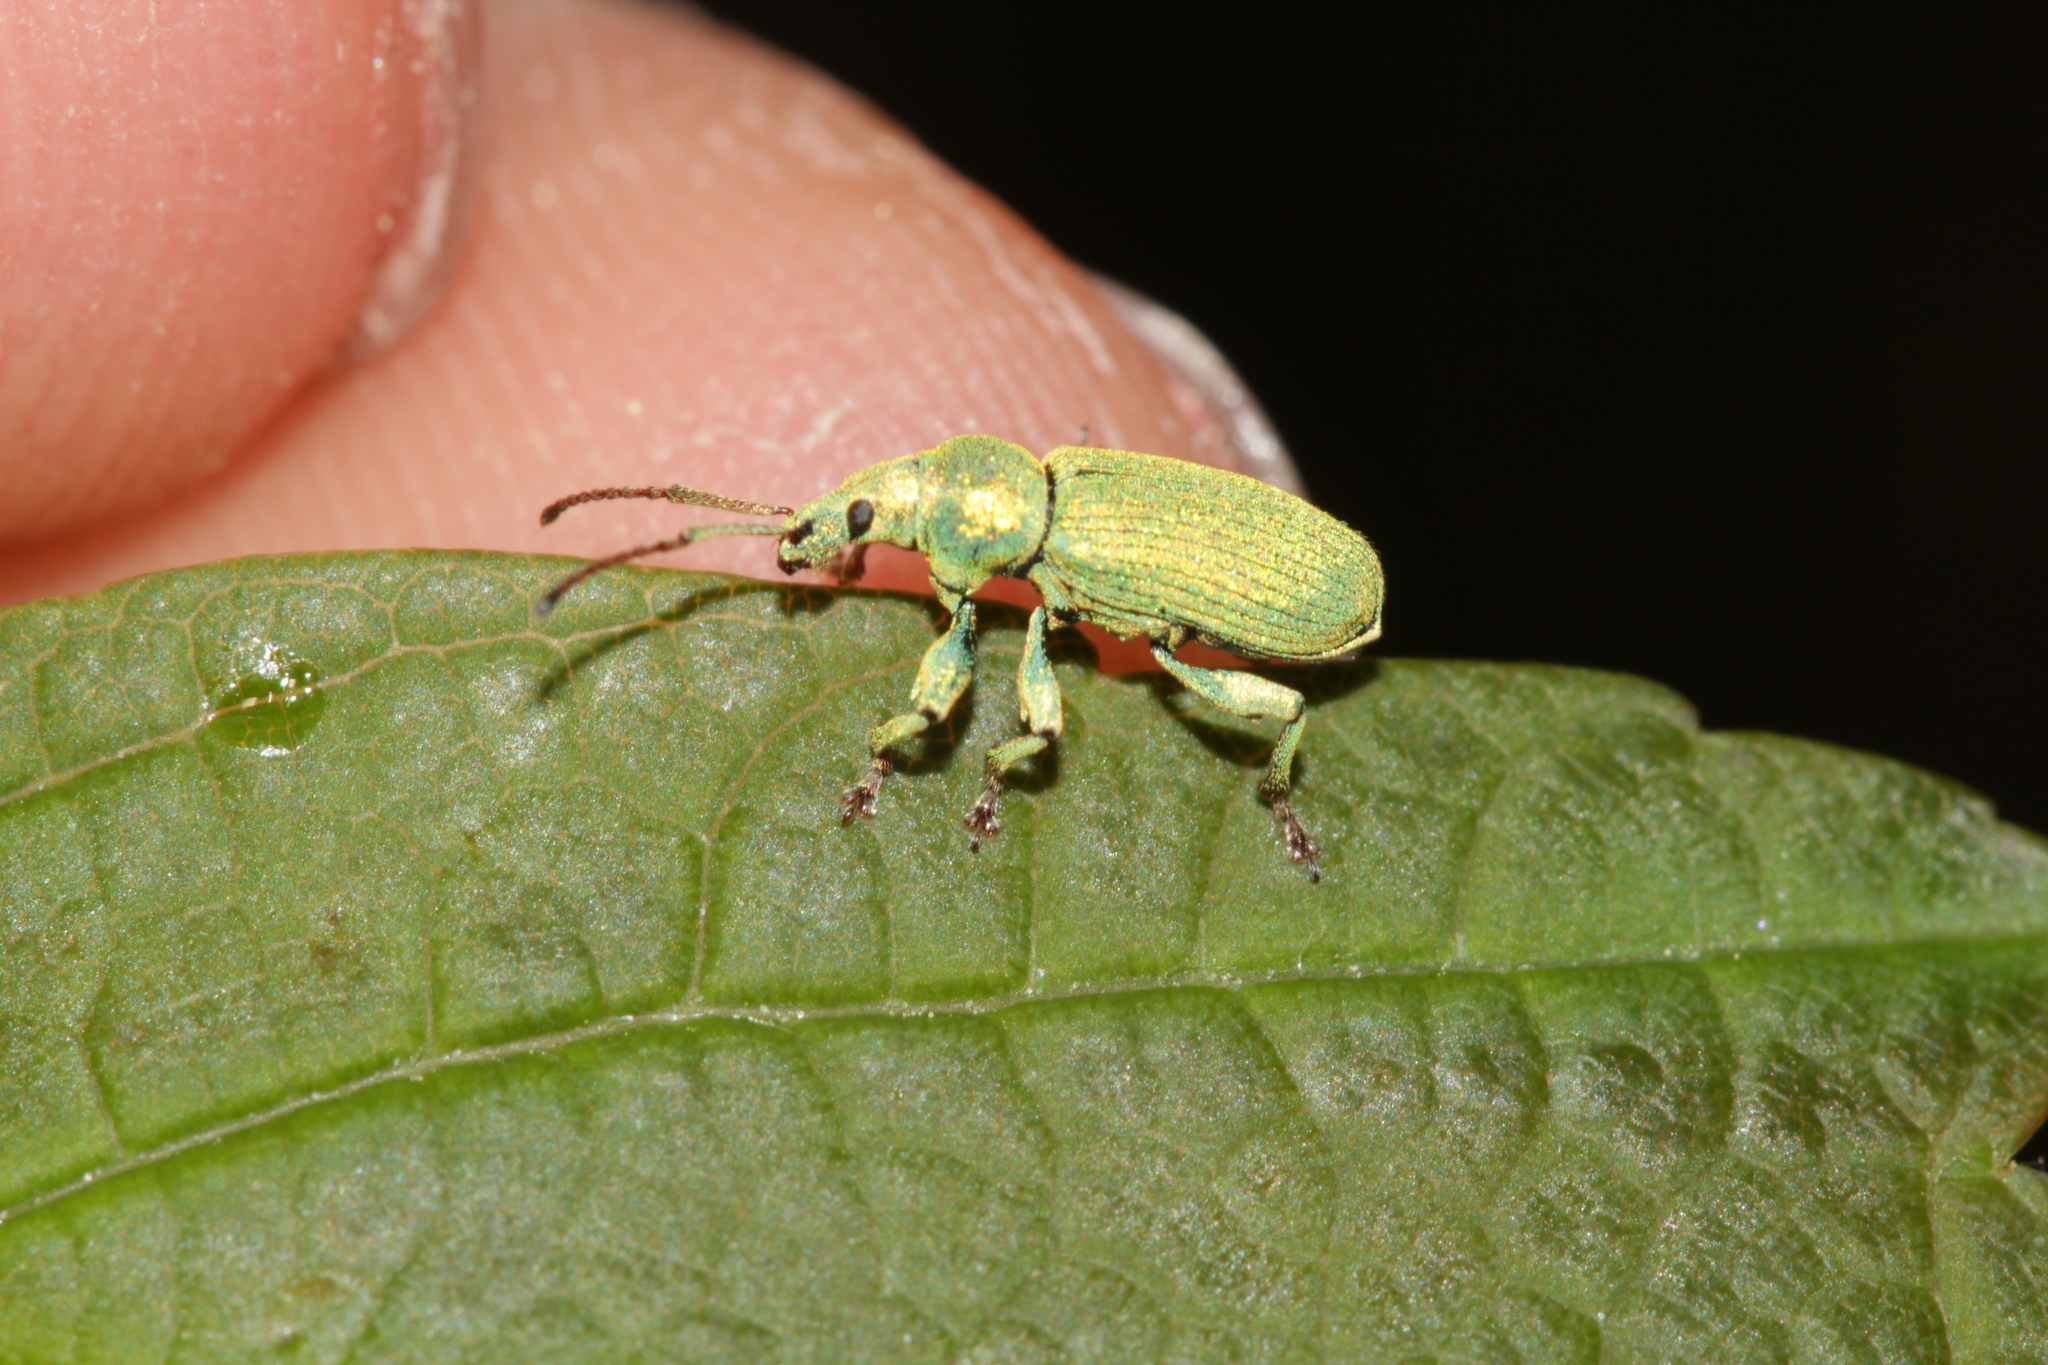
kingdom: Animalia
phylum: Arthropoda
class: Insecta
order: Coleoptera
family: Curculionidae
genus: Phyllobius
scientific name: Phyllobius maculicornis
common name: Green leaf weevil
